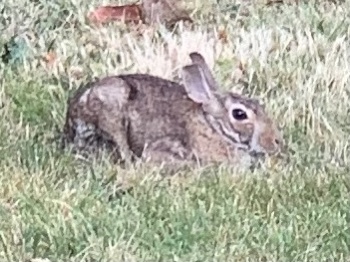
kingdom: Animalia
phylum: Chordata
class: Mammalia
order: Lagomorpha
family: Leporidae
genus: Sylvilagus
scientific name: Sylvilagus floridanus
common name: Eastern cottontail
